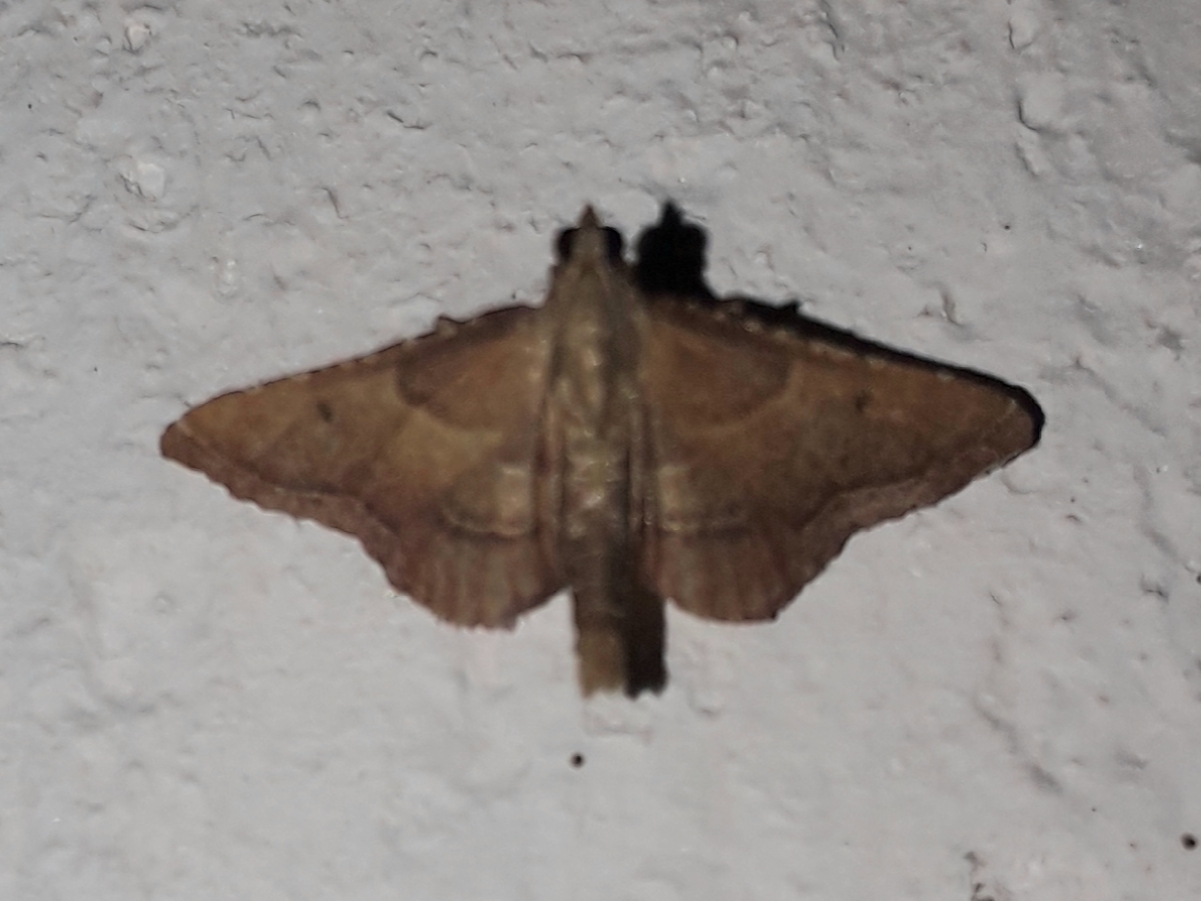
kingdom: Animalia
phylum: Arthropoda
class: Insecta
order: Lepidoptera
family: Pyralidae
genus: Endotricha
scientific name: Endotricha flammealis
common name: Rosy tabby
